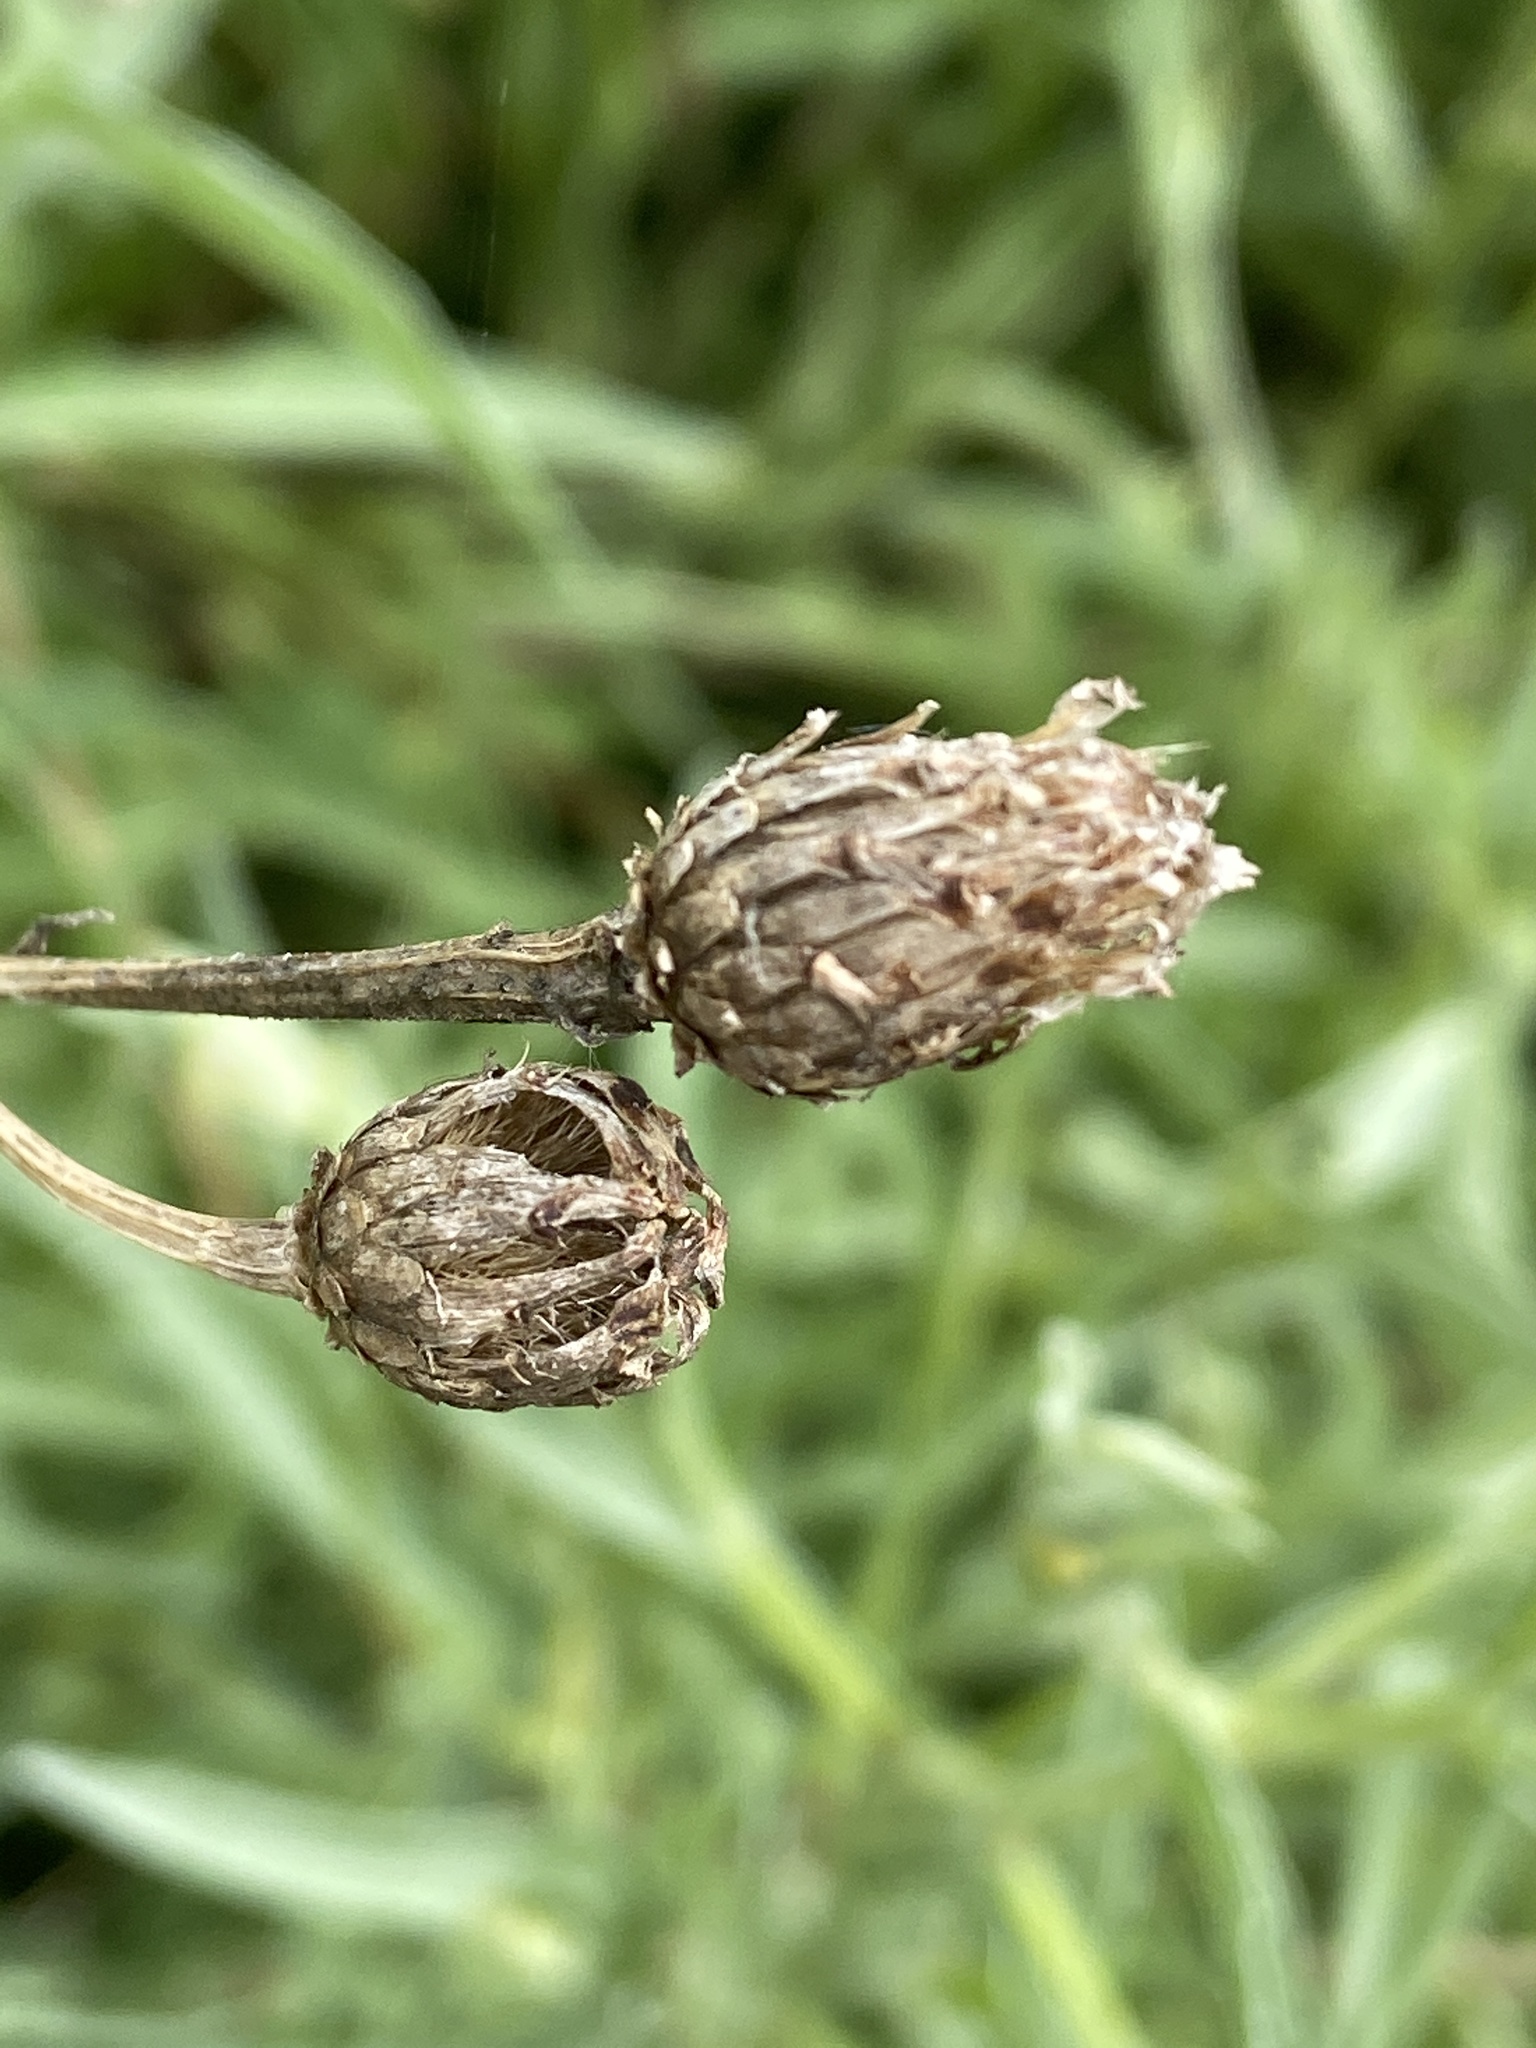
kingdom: Plantae
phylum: Tracheophyta
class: Magnoliopsida
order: Asterales
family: Asteraceae
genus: Centaurea
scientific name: Centaurea scabiosa
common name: Greater knapweed
